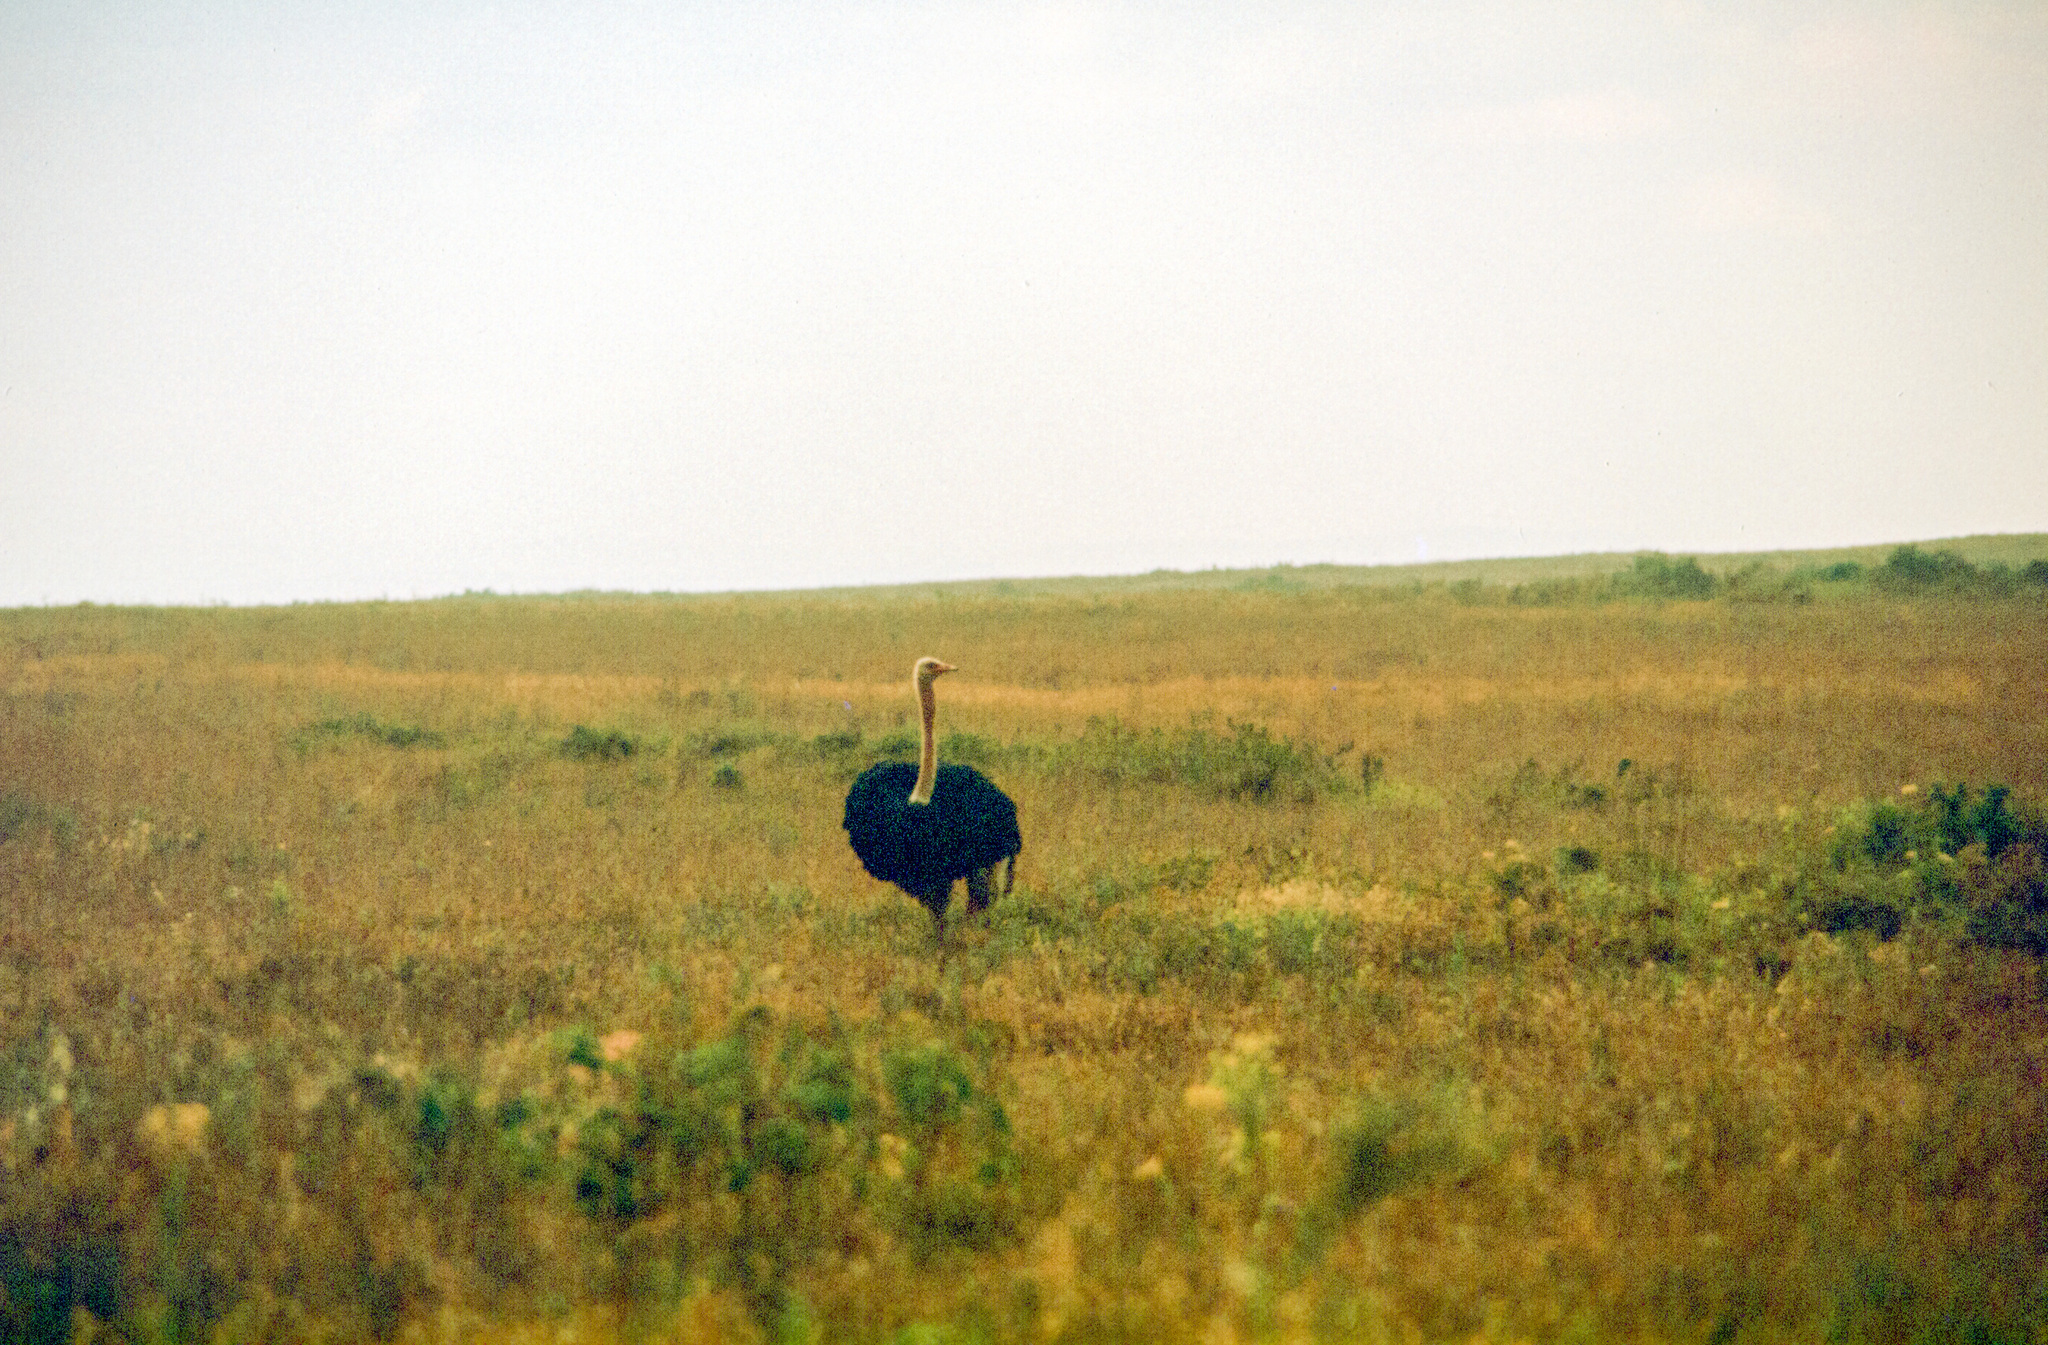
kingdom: Animalia
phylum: Chordata
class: Aves
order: Struthioniformes
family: Struthionidae
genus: Struthio
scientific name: Struthio camelus
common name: Common ostrich
